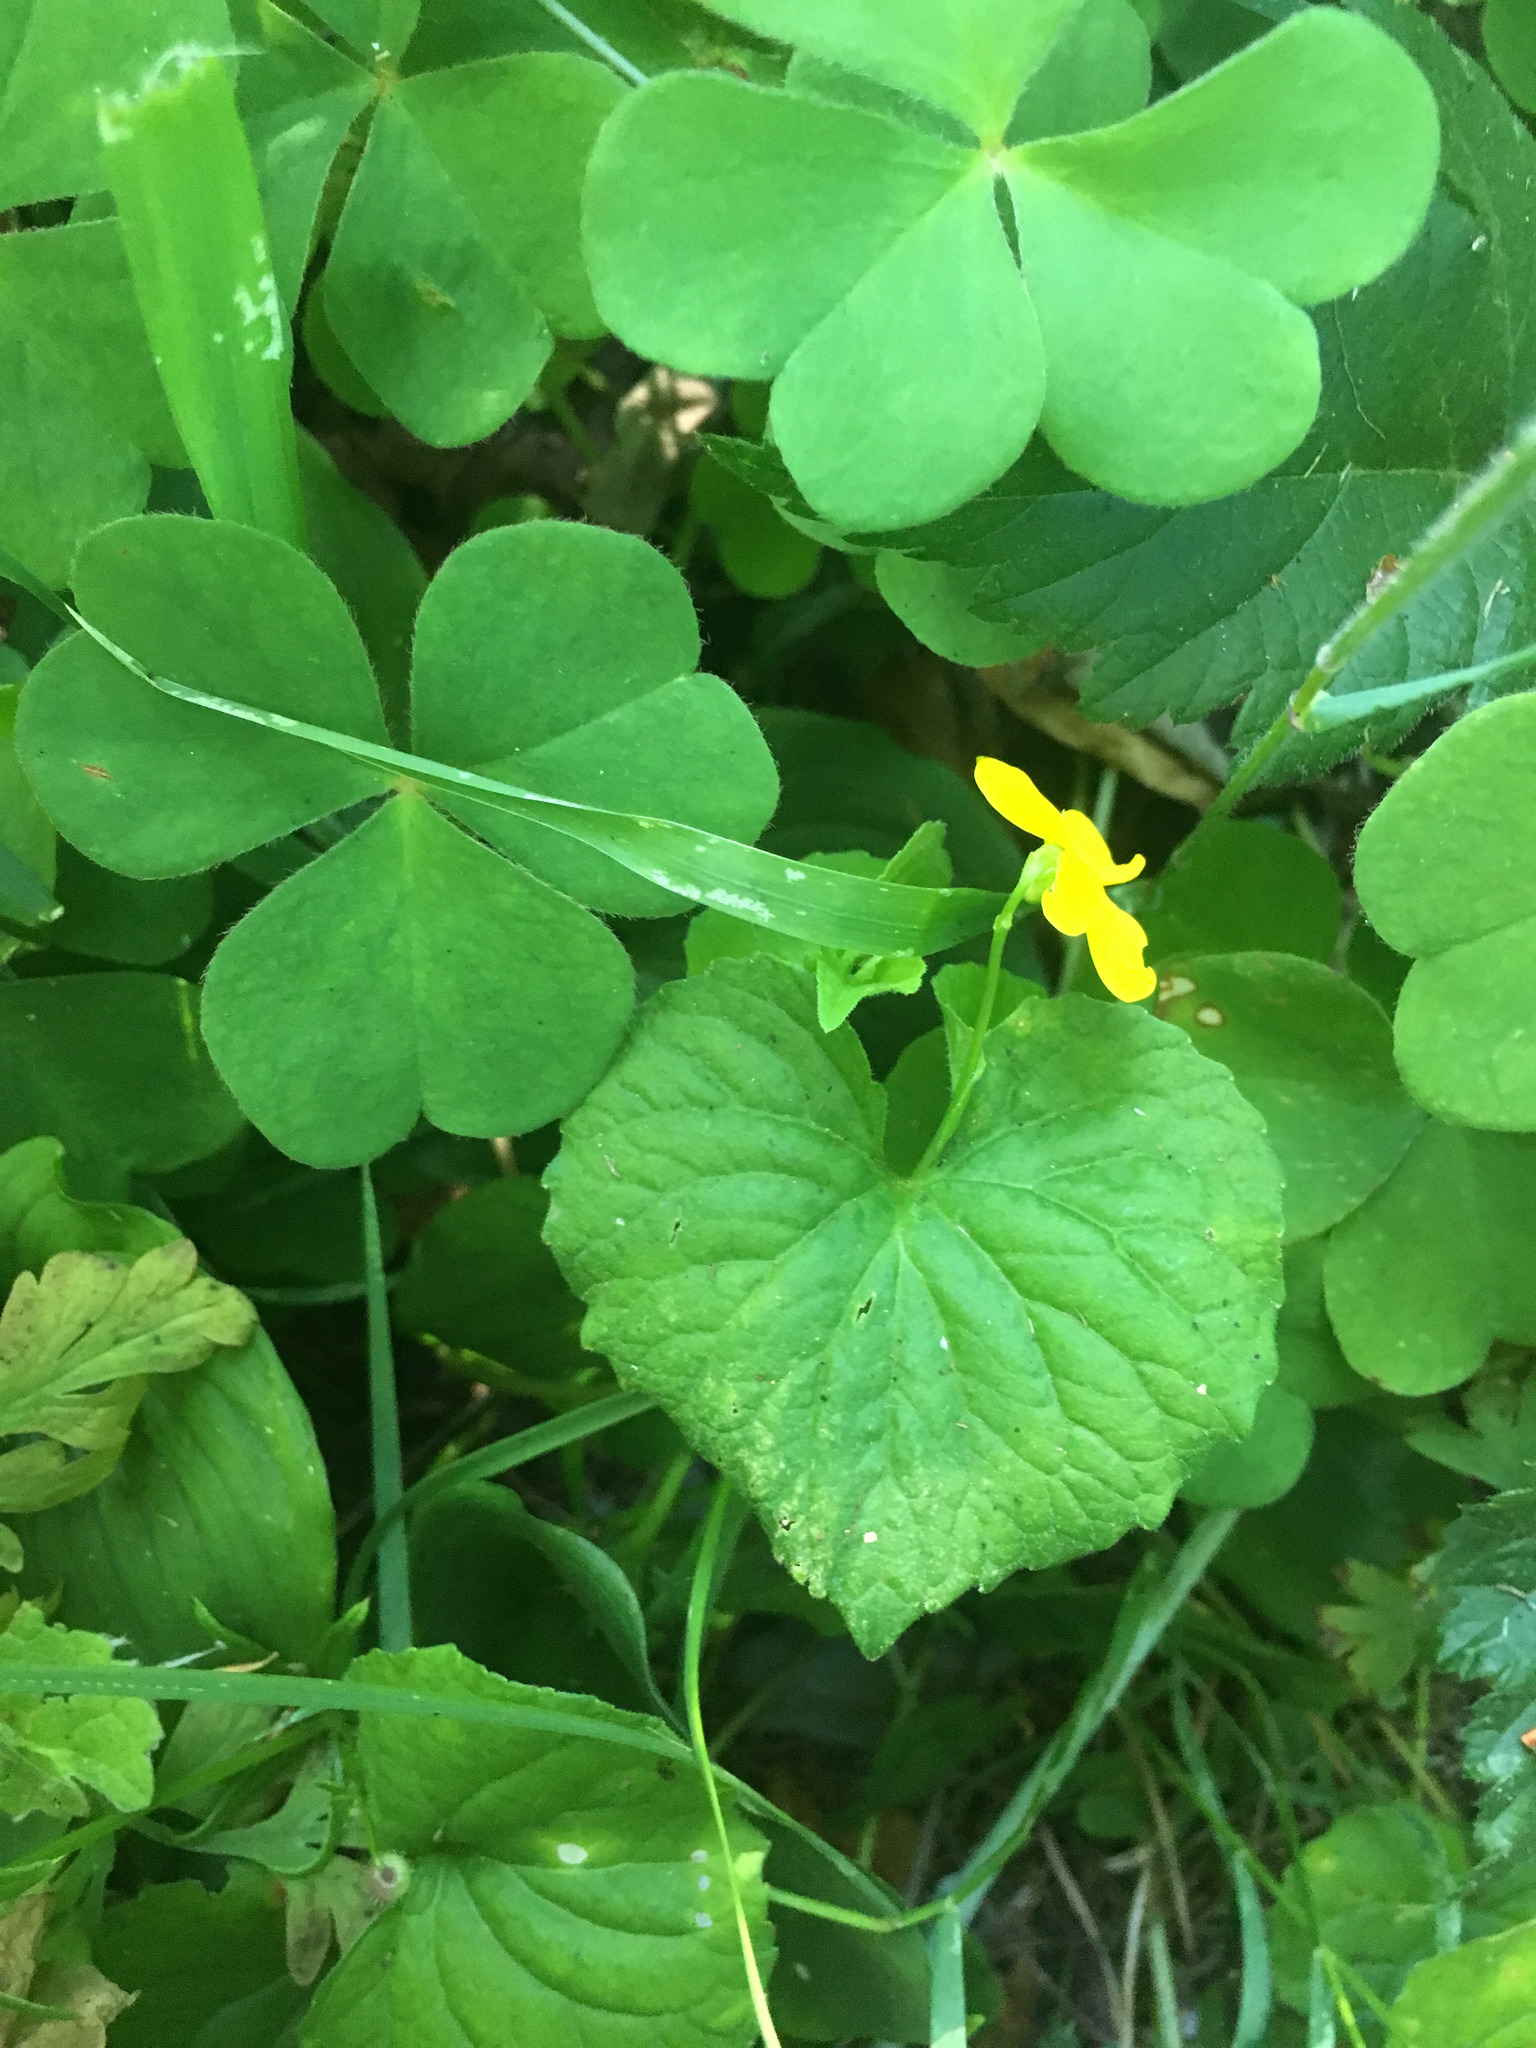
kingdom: Plantae
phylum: Tracheophyta
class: Magnoliopsida
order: Malpighiales
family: Violaceae
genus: Viola
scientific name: Viola glabella
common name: Stream violet
